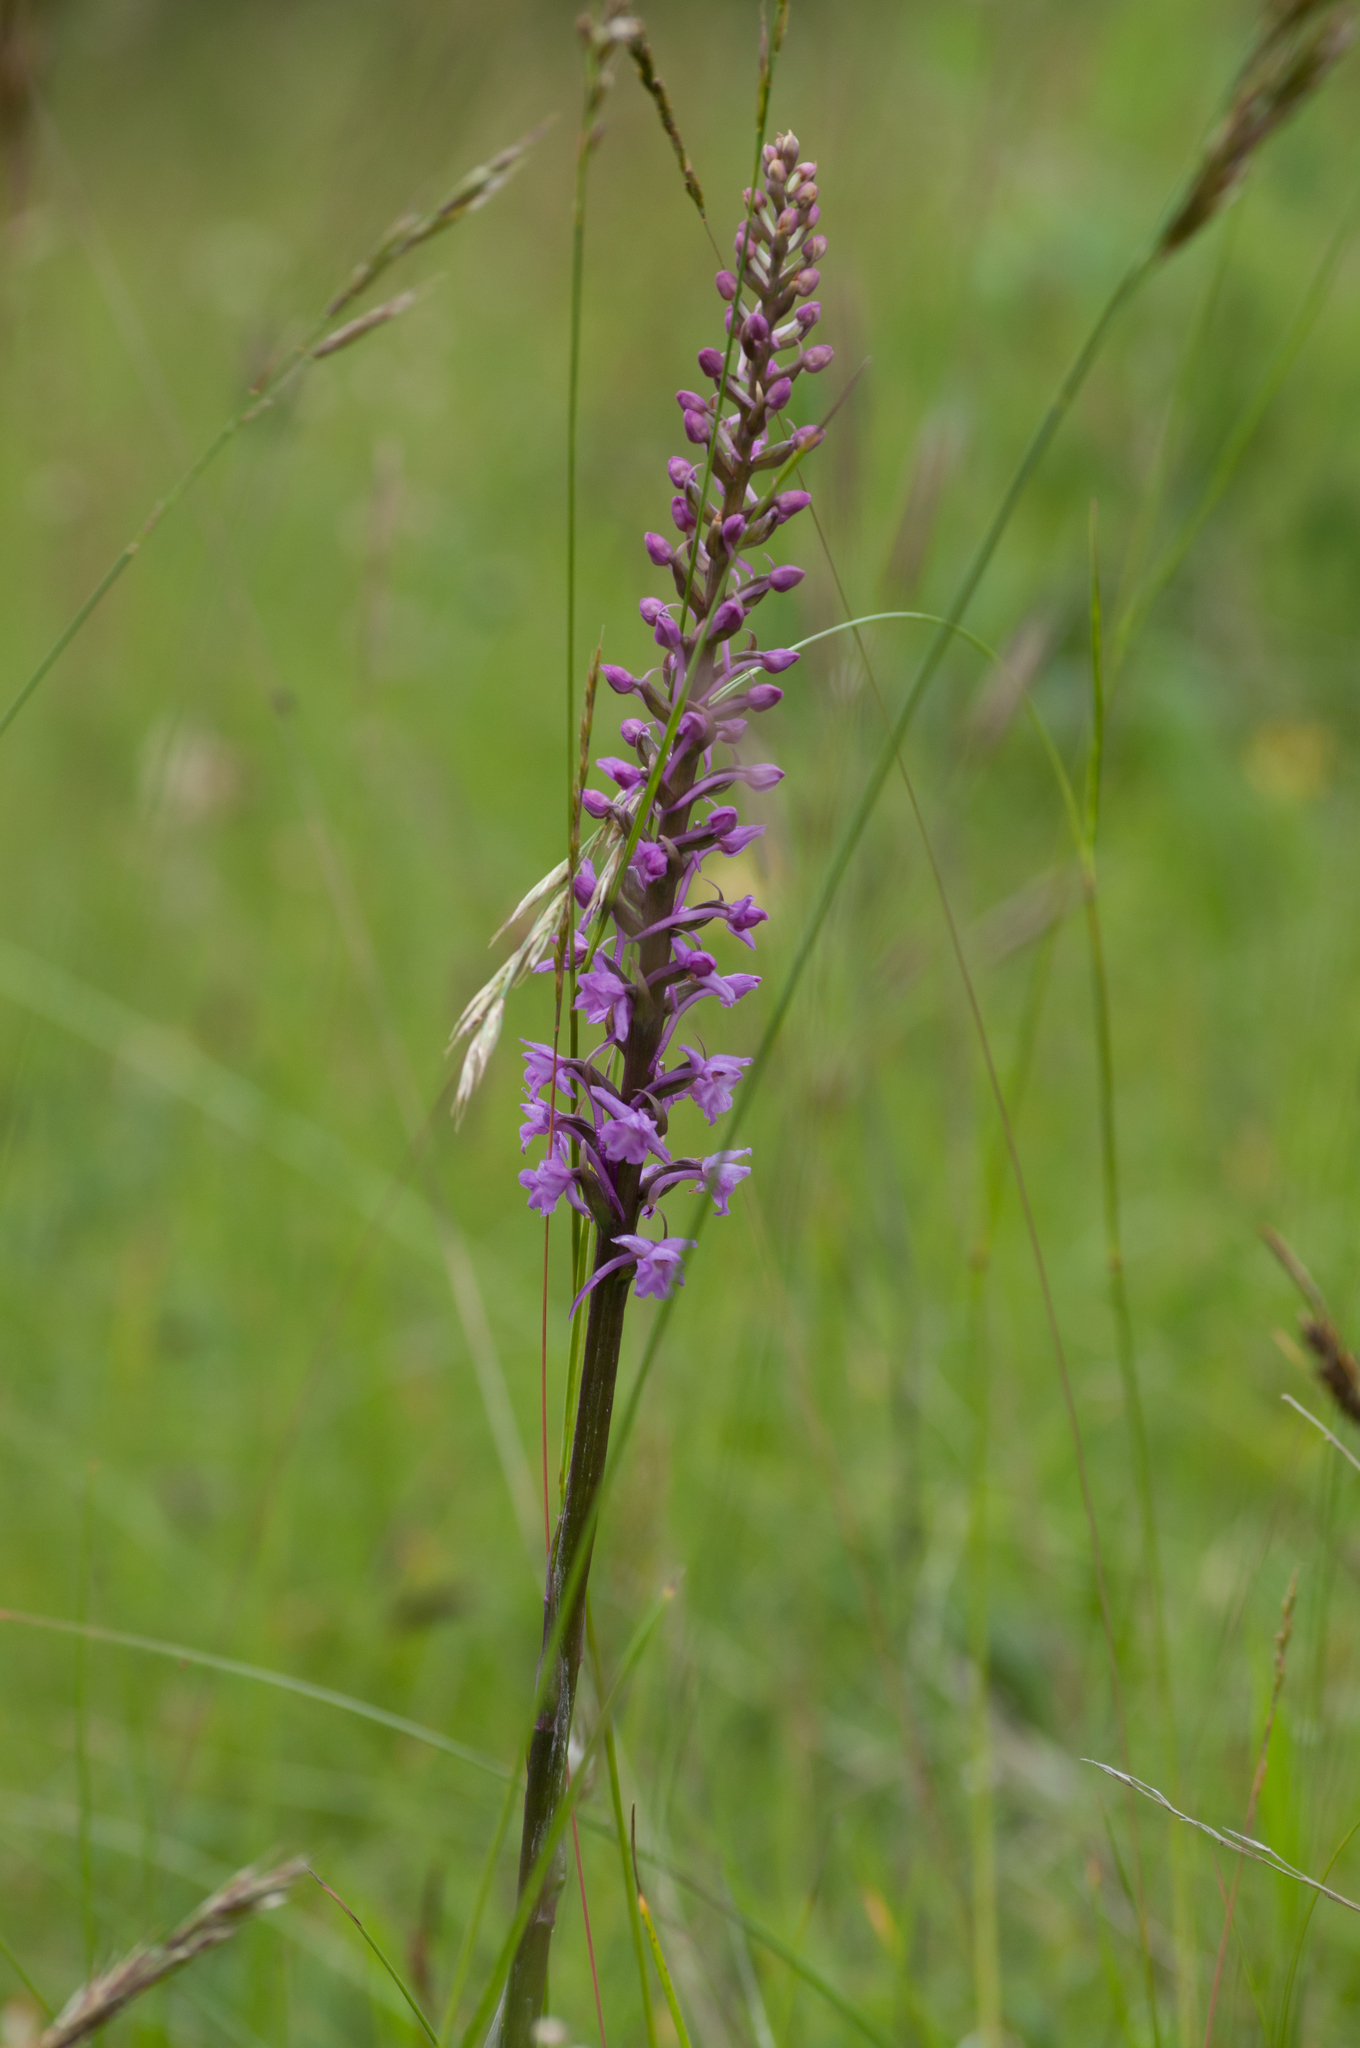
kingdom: Plantae
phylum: Tracheophyta
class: Liliopsida
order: Asparagales
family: Orchidaceae
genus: Gymnadenia
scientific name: Gymnadenia conopsea
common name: Fragrant orchid
